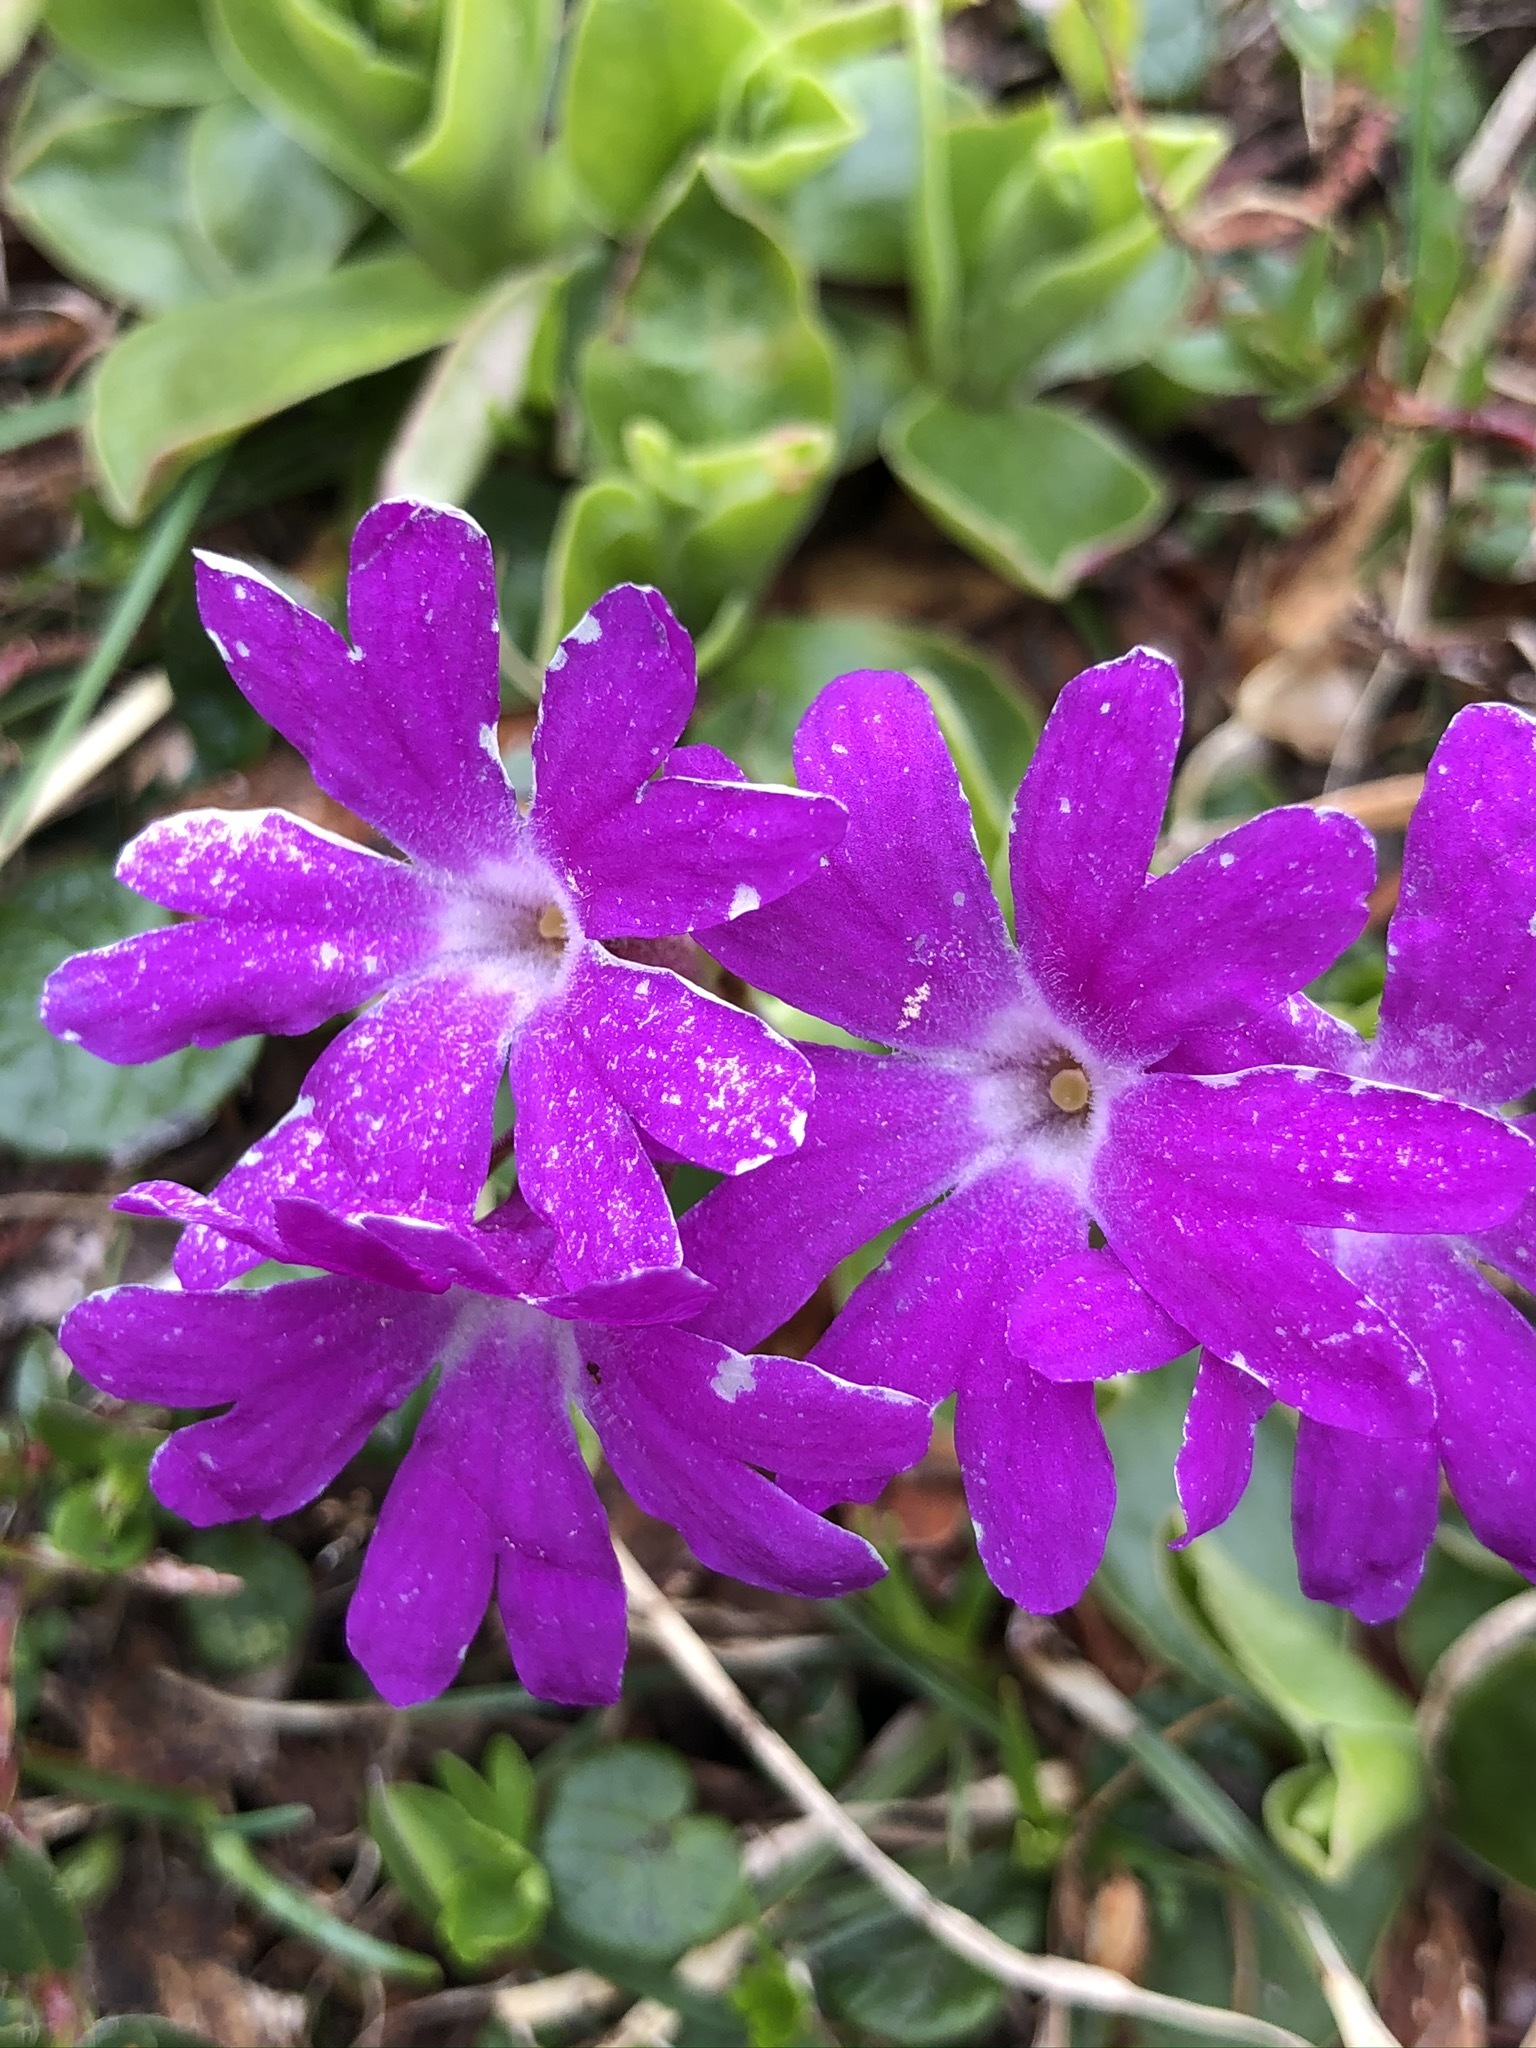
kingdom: Plantae
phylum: Tracheophyta
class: Magnoliopsida
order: Ericales
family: Primulaceae
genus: Primula
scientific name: Primula clusiana
